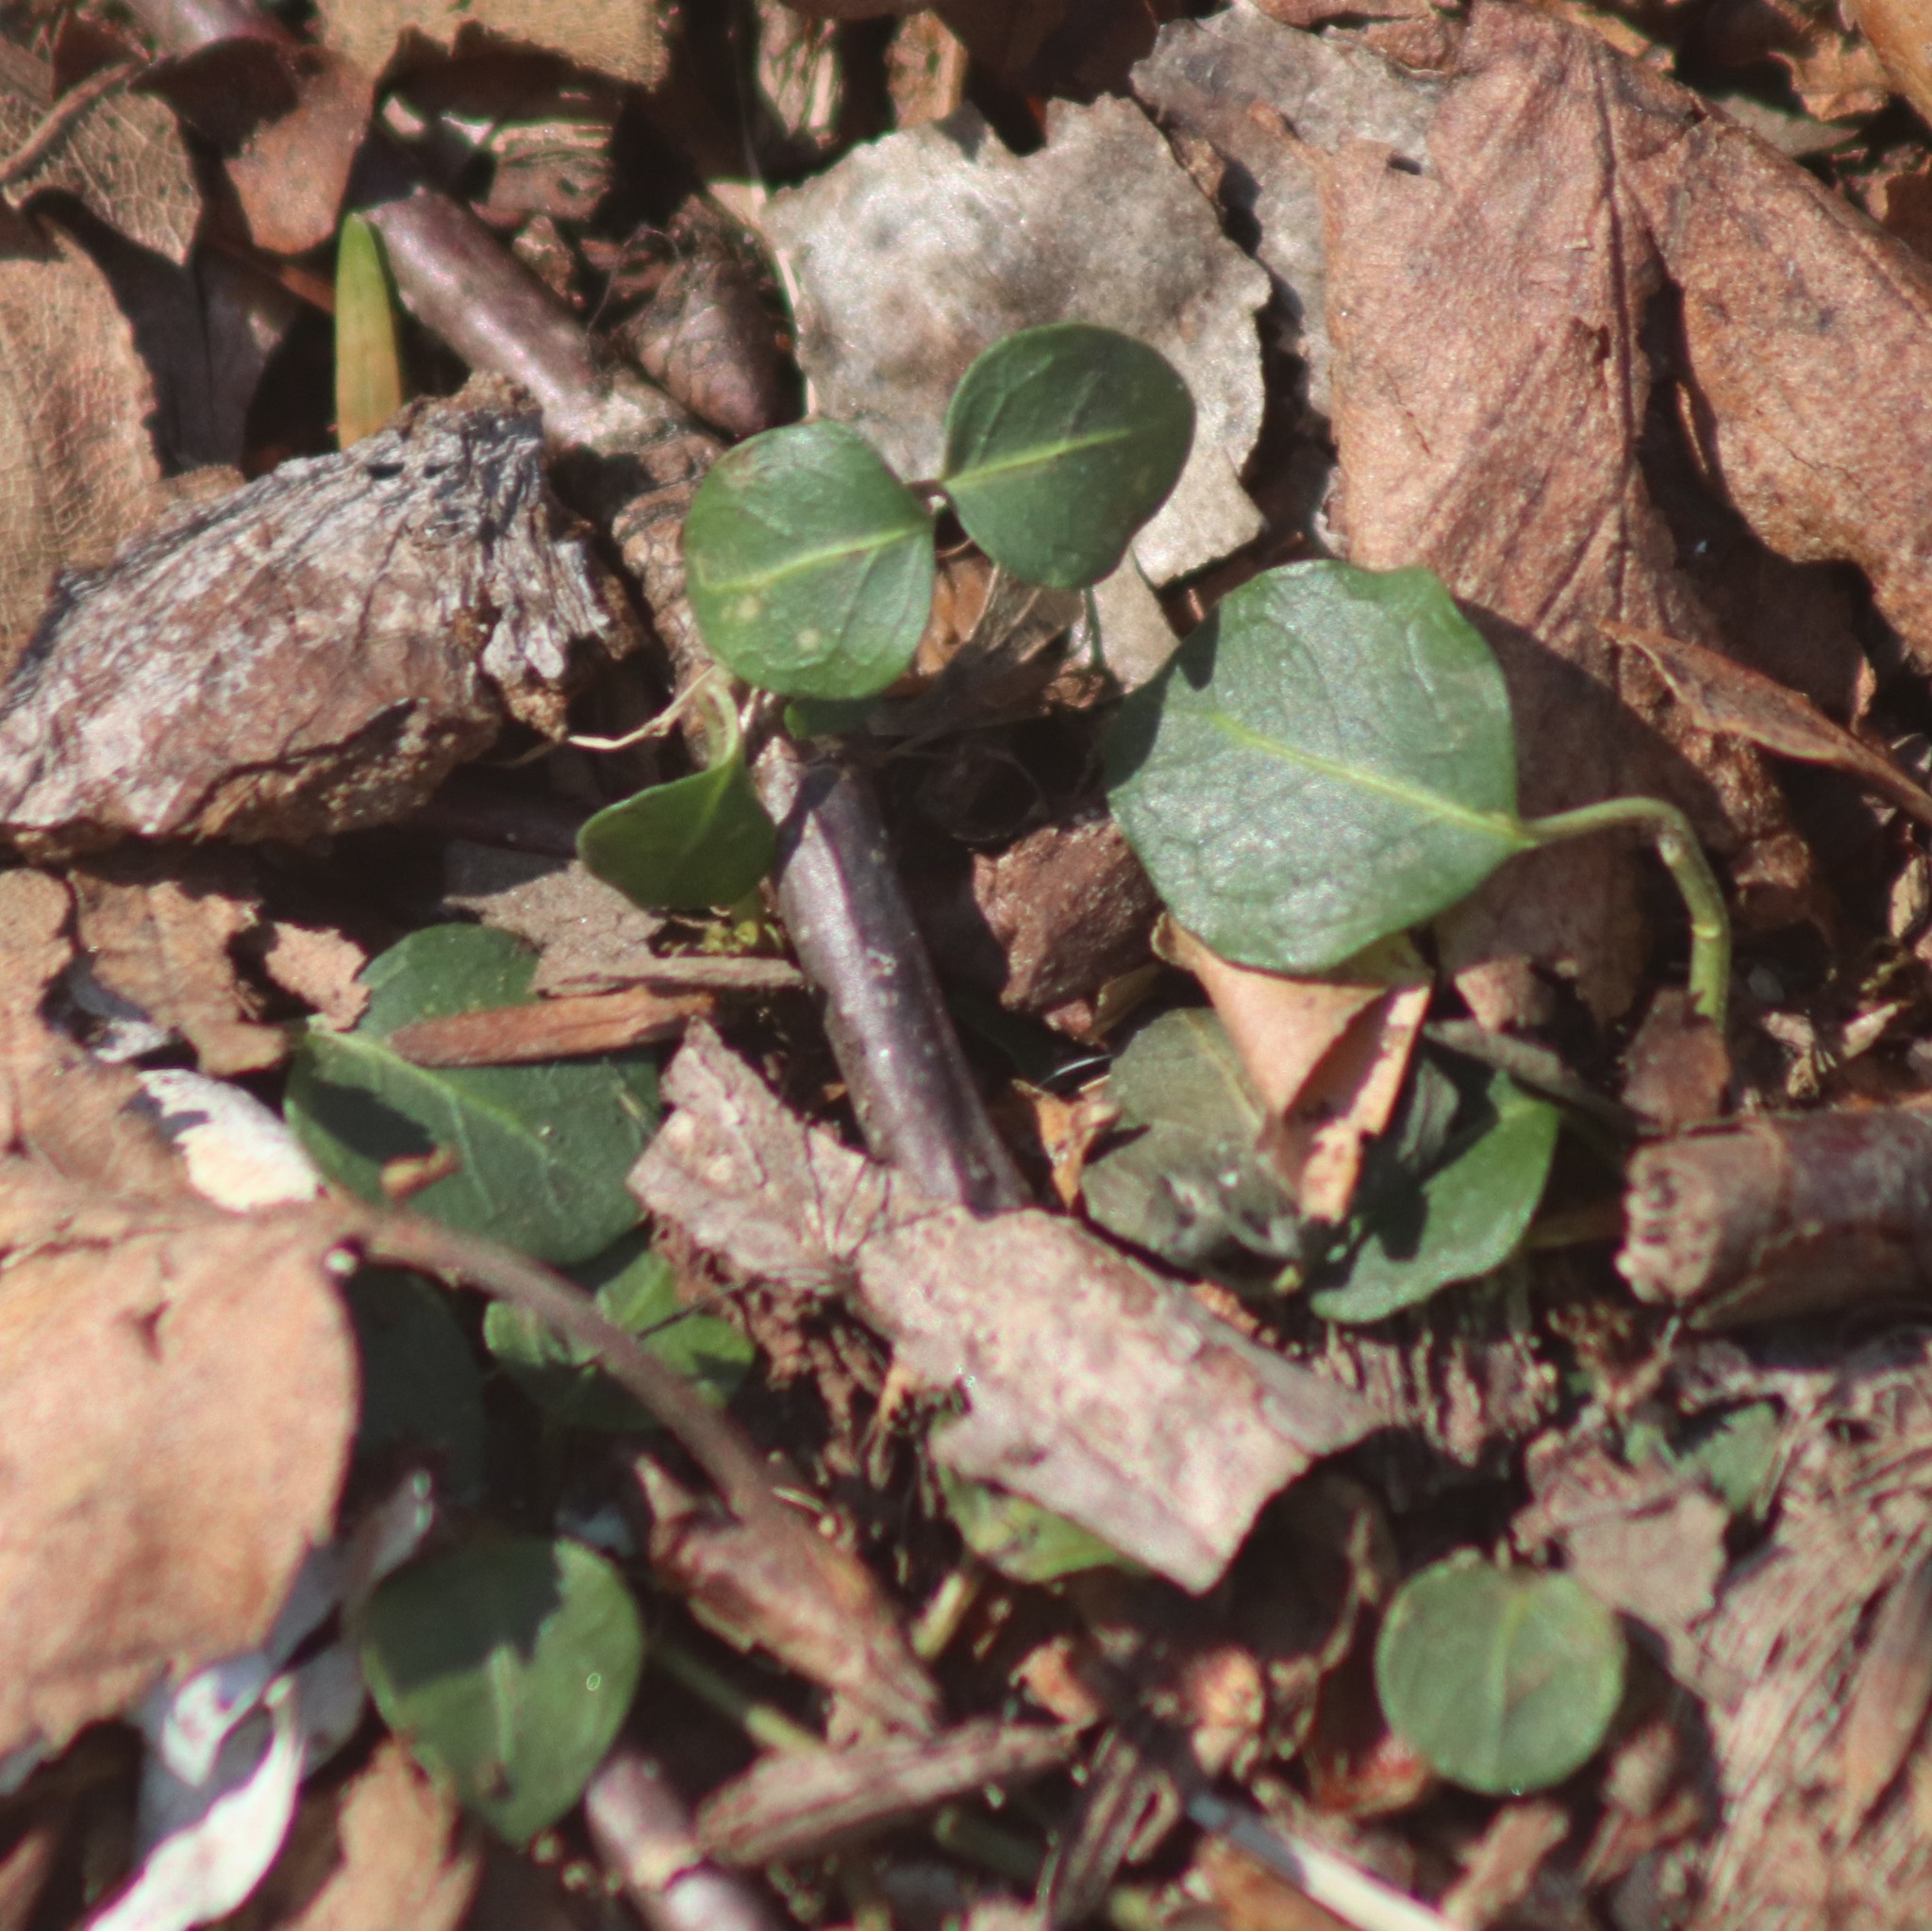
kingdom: Plantae
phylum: Tracheophyta
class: Magnoliopsida
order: Gentianales
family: Rubiaceae
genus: Mitchella
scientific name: Mitchella repens
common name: Partridge-berry
